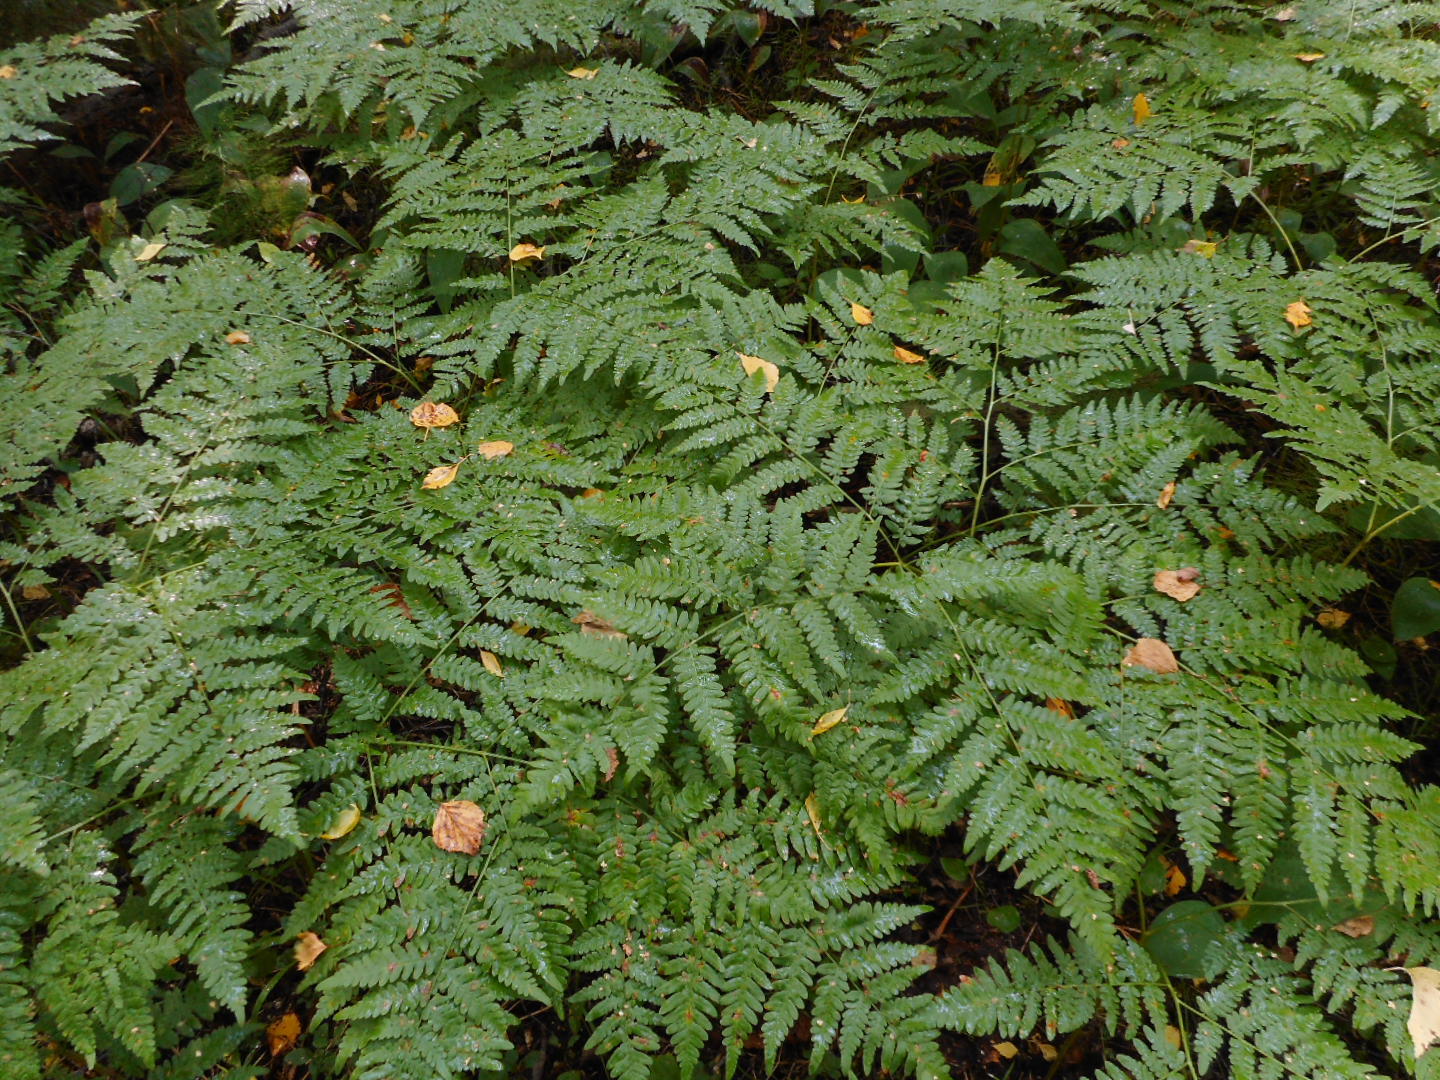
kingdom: Plantae
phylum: Tracheophyta
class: Polypodiopsida
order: Polypodiales
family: Dennstaedtiaceae
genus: Pteridium
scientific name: Pteridium aquilinum
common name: Bracken
